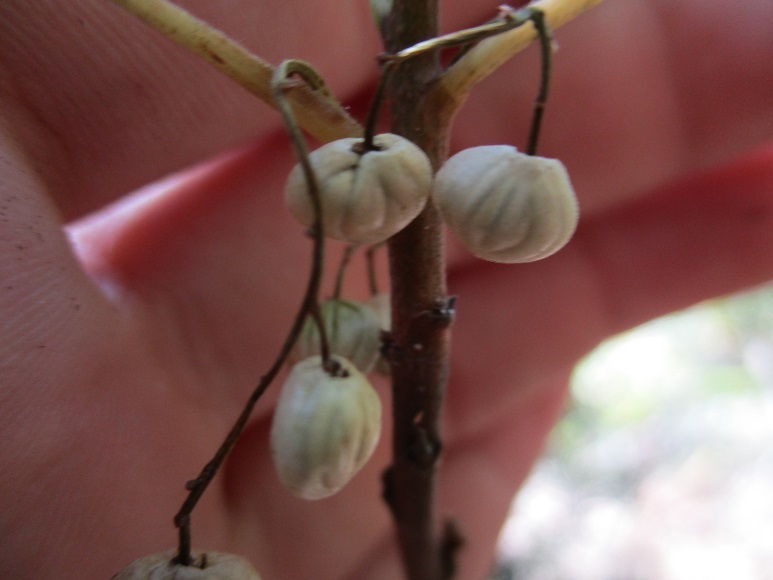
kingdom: Plantae
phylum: Tracheophyta
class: Magnoliopsida
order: Sapindales
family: Anacardiaceae
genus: Toxicodendron
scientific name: Toxicodendron diversilobum
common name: Pacific poison-oak
